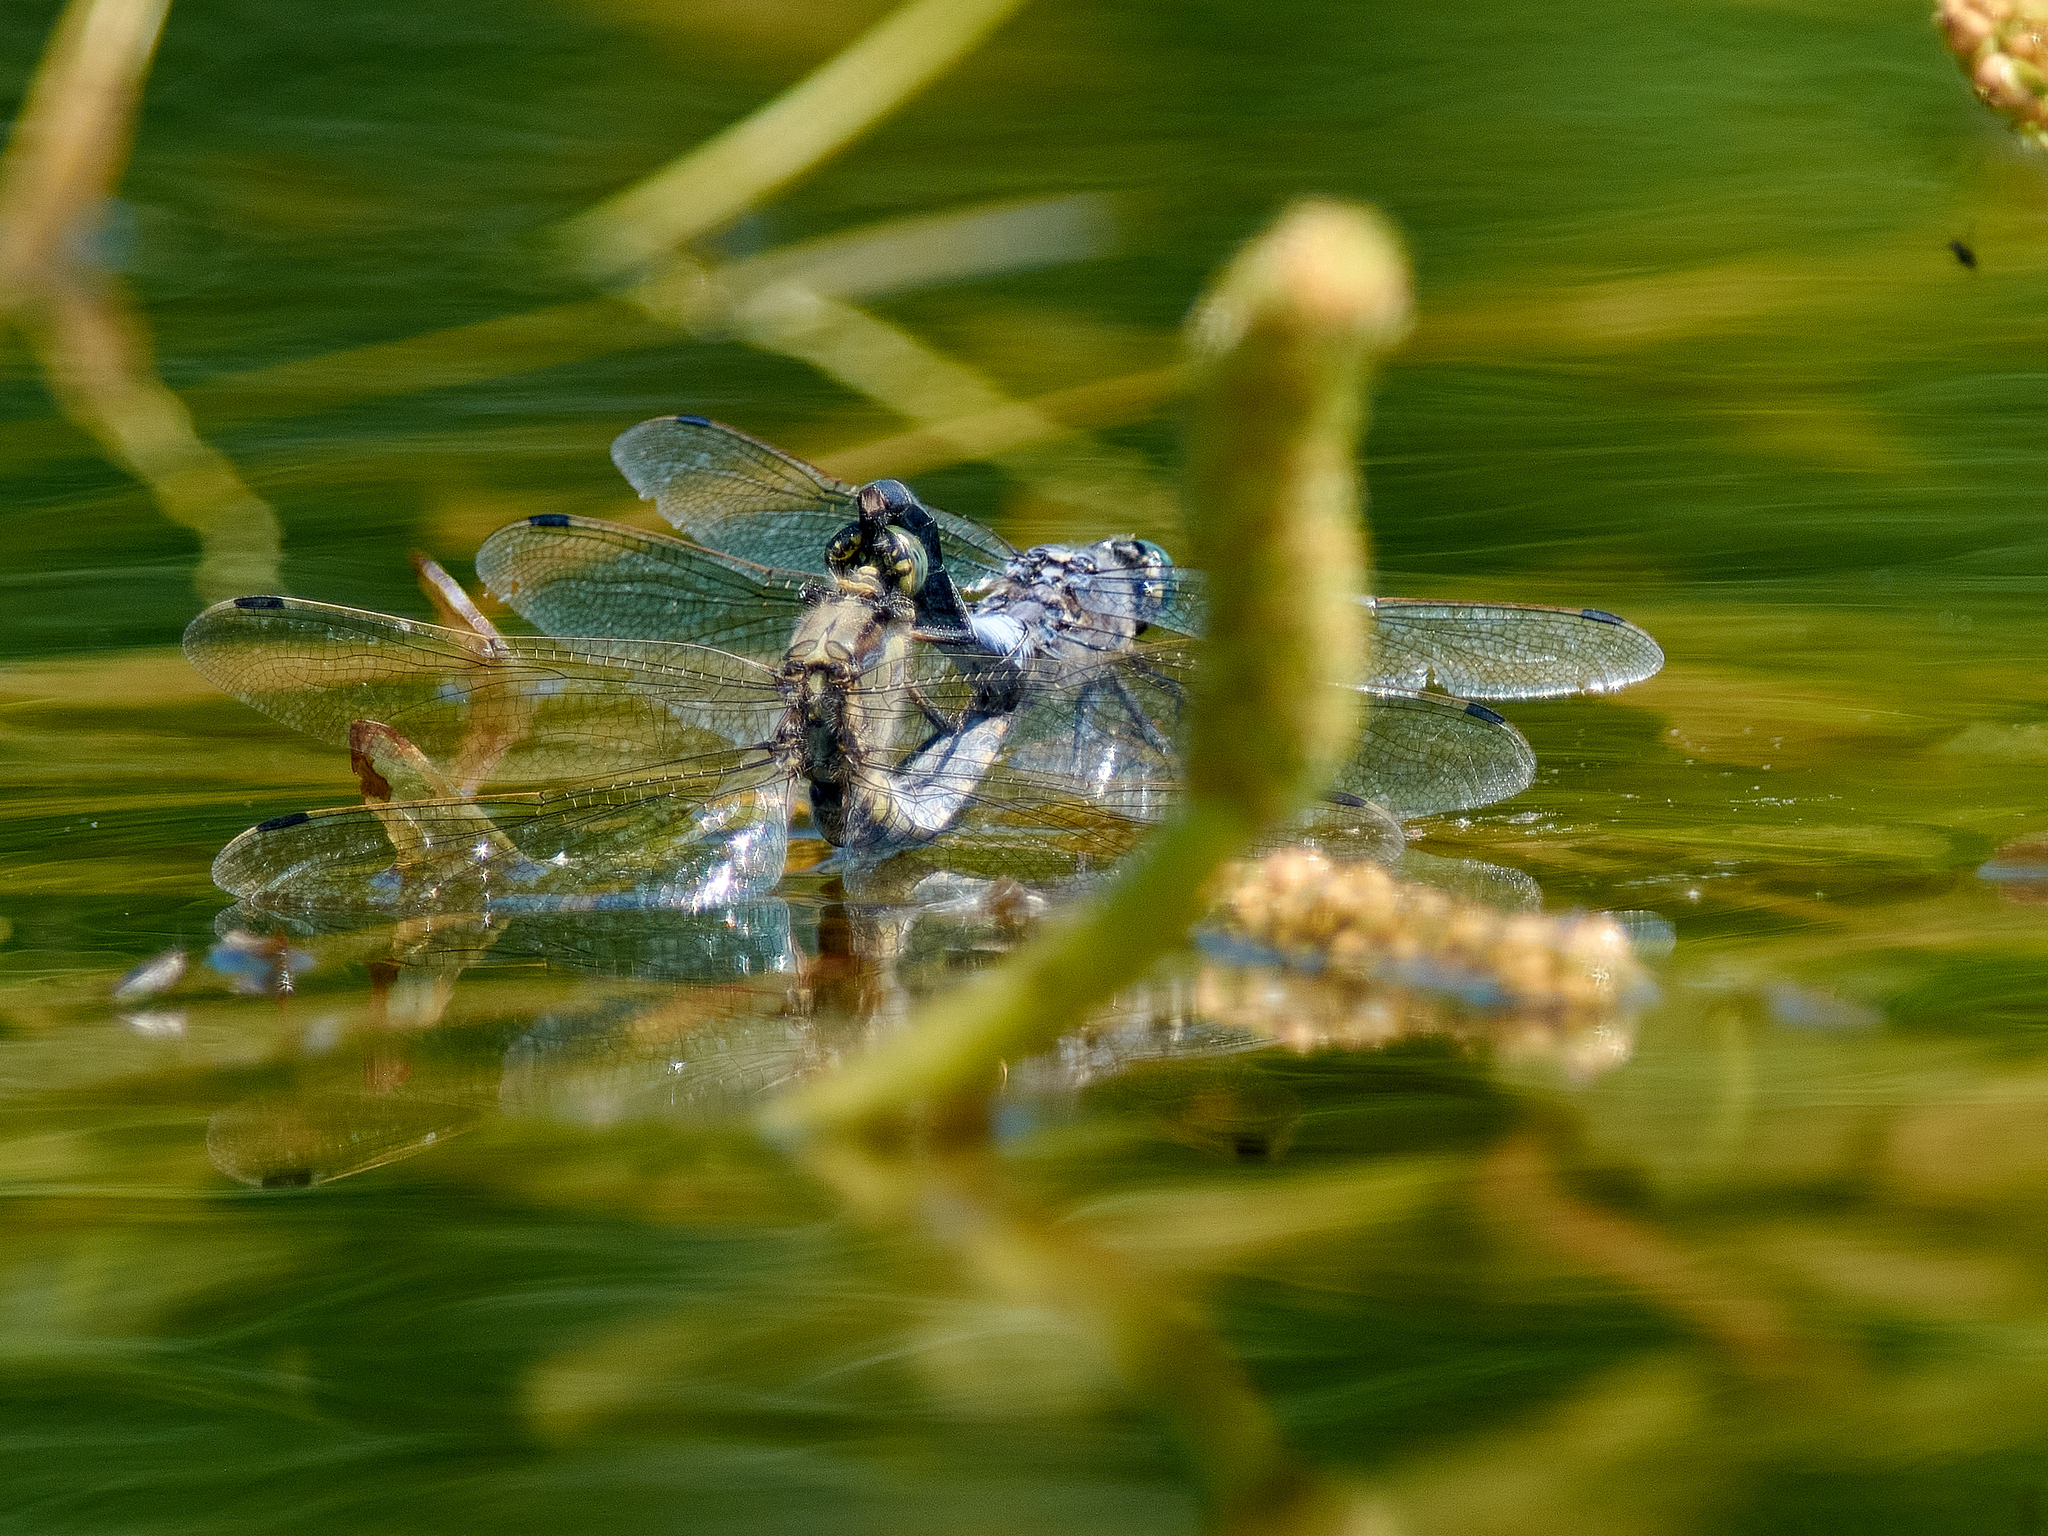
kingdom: Animalia
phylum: Arthropoda
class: Insecta
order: Odonata
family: Libellulidae
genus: Orthetrum
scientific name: Orthetrum cancellatum
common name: Black-tailed skimmer
